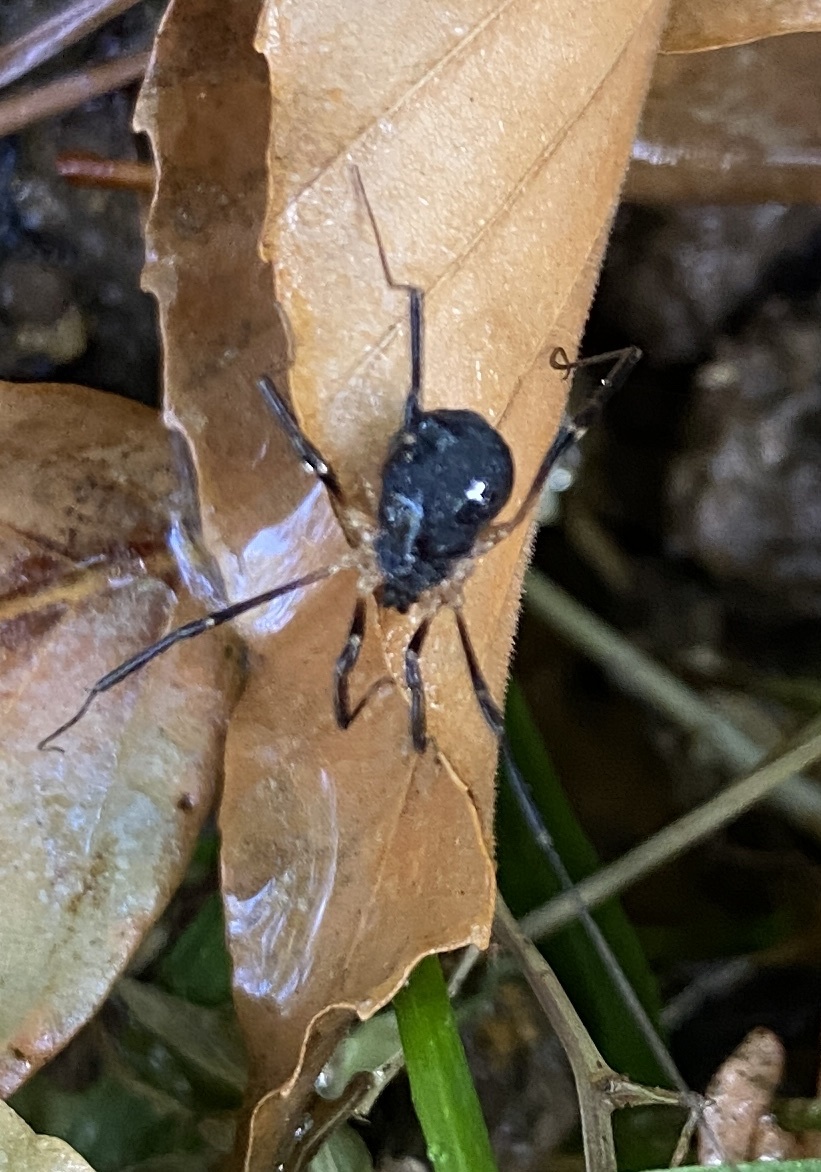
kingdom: Animalia
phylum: Arthropoda
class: Arachnida
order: Opiliones
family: Sclerosomatidae
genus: Eumesosoma
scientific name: Eumesosoma roeweri
